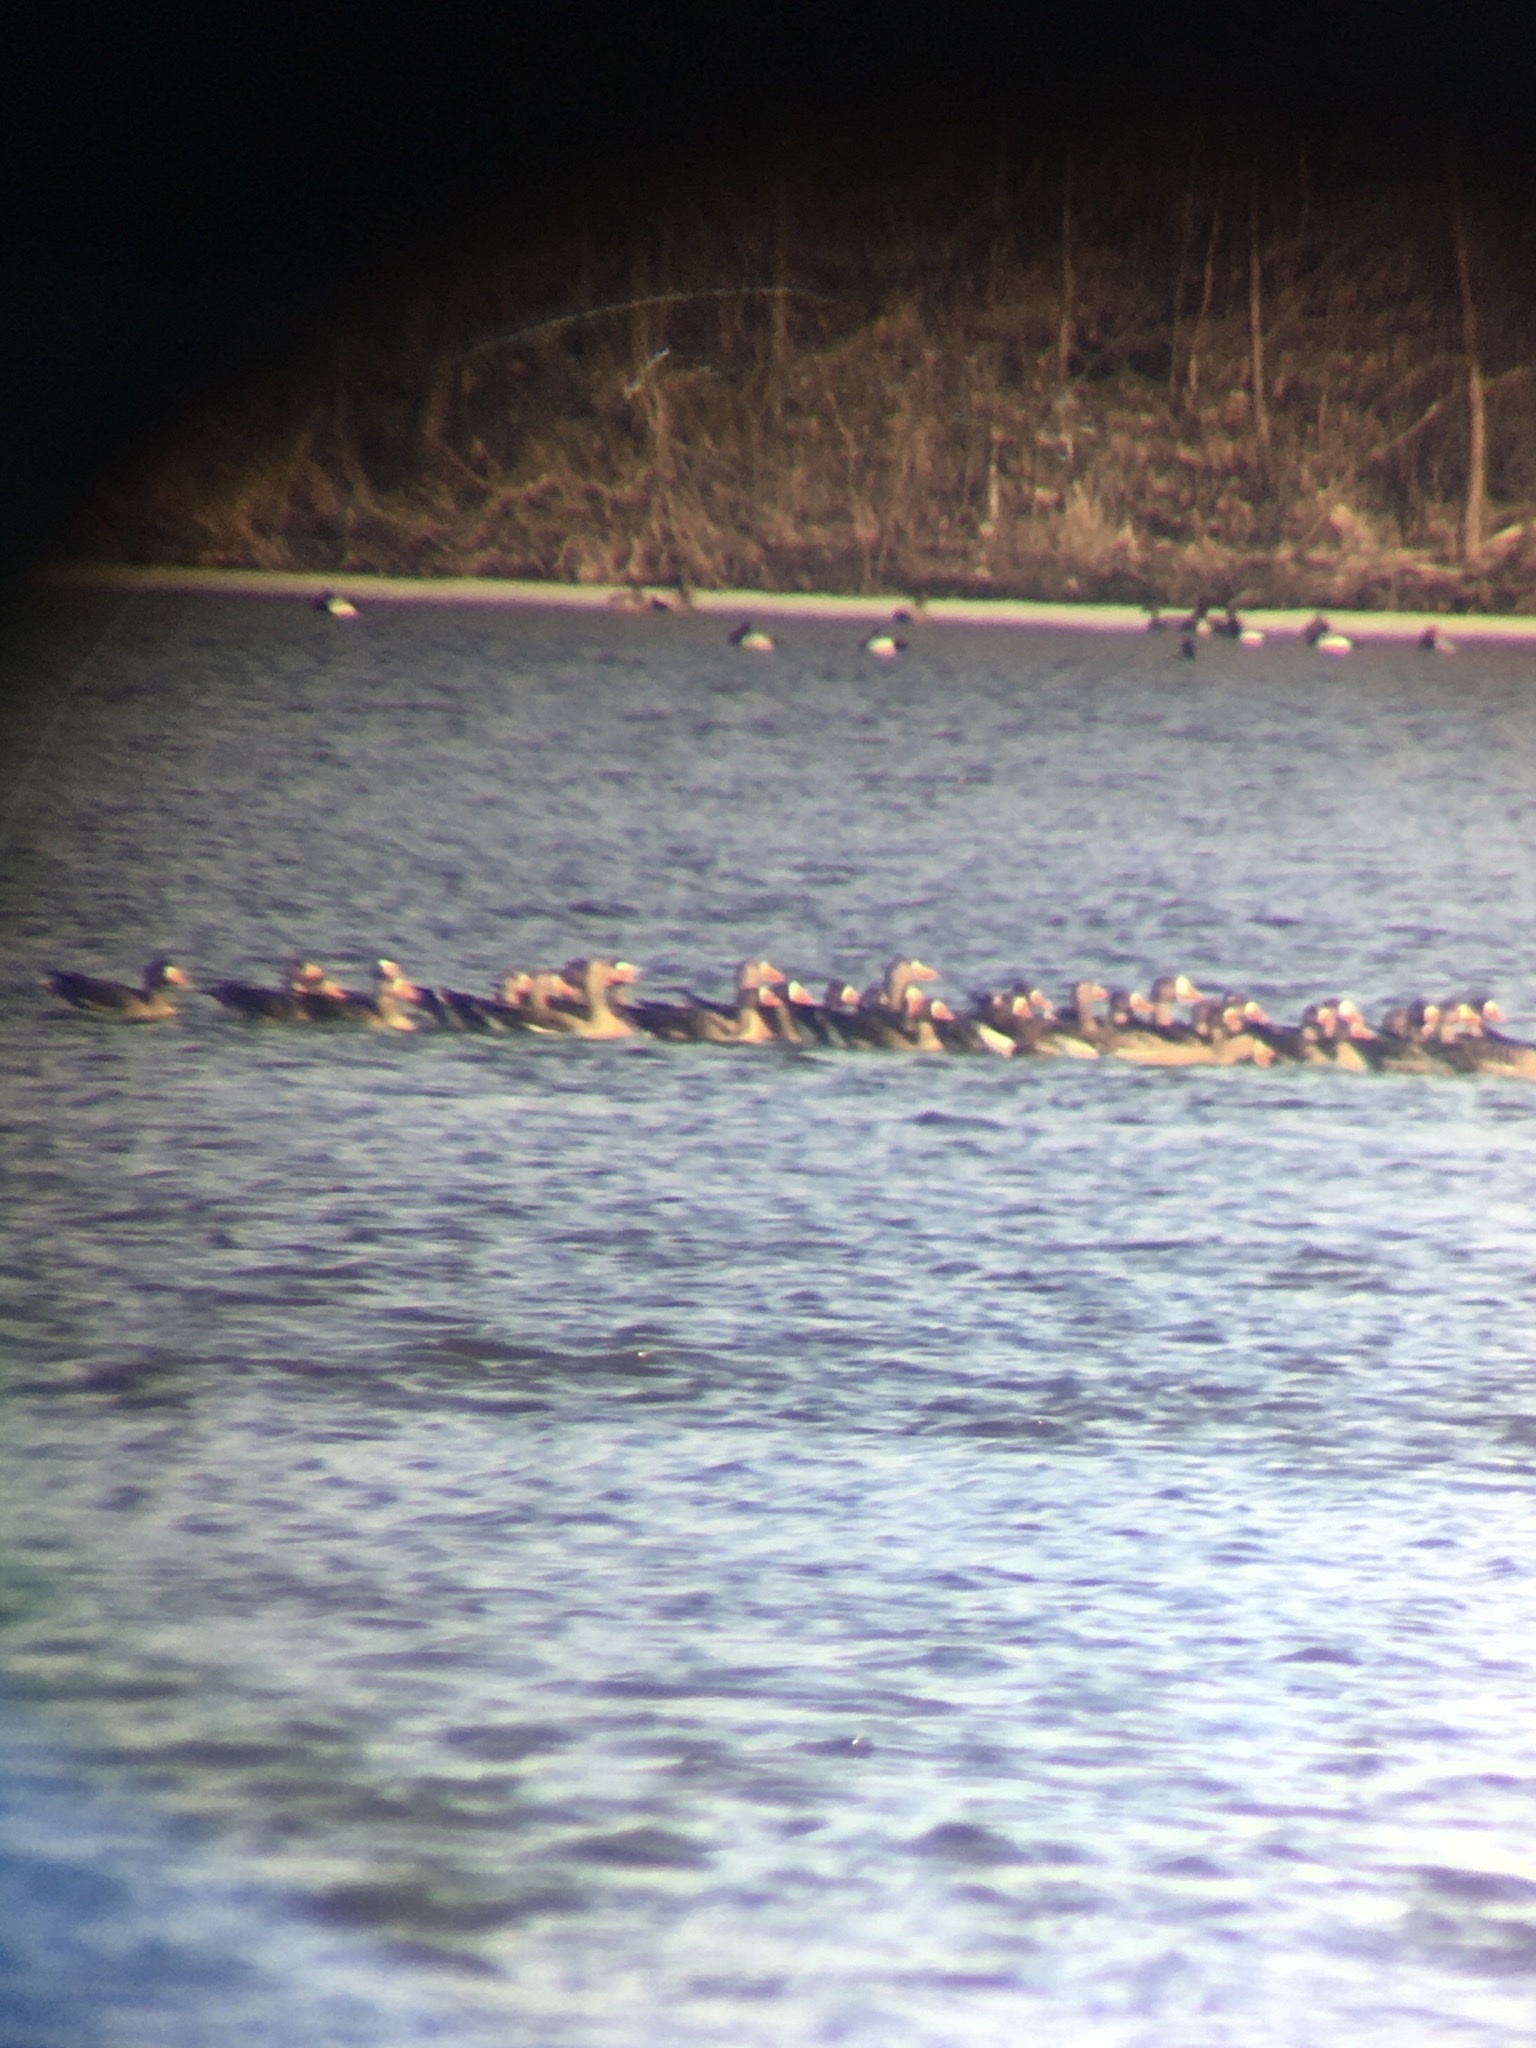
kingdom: Animalia
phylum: Chordata
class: Aves
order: Anseriformes
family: Anatidae
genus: Anser
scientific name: Anser albifrons
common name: Greater white-fronted goose
